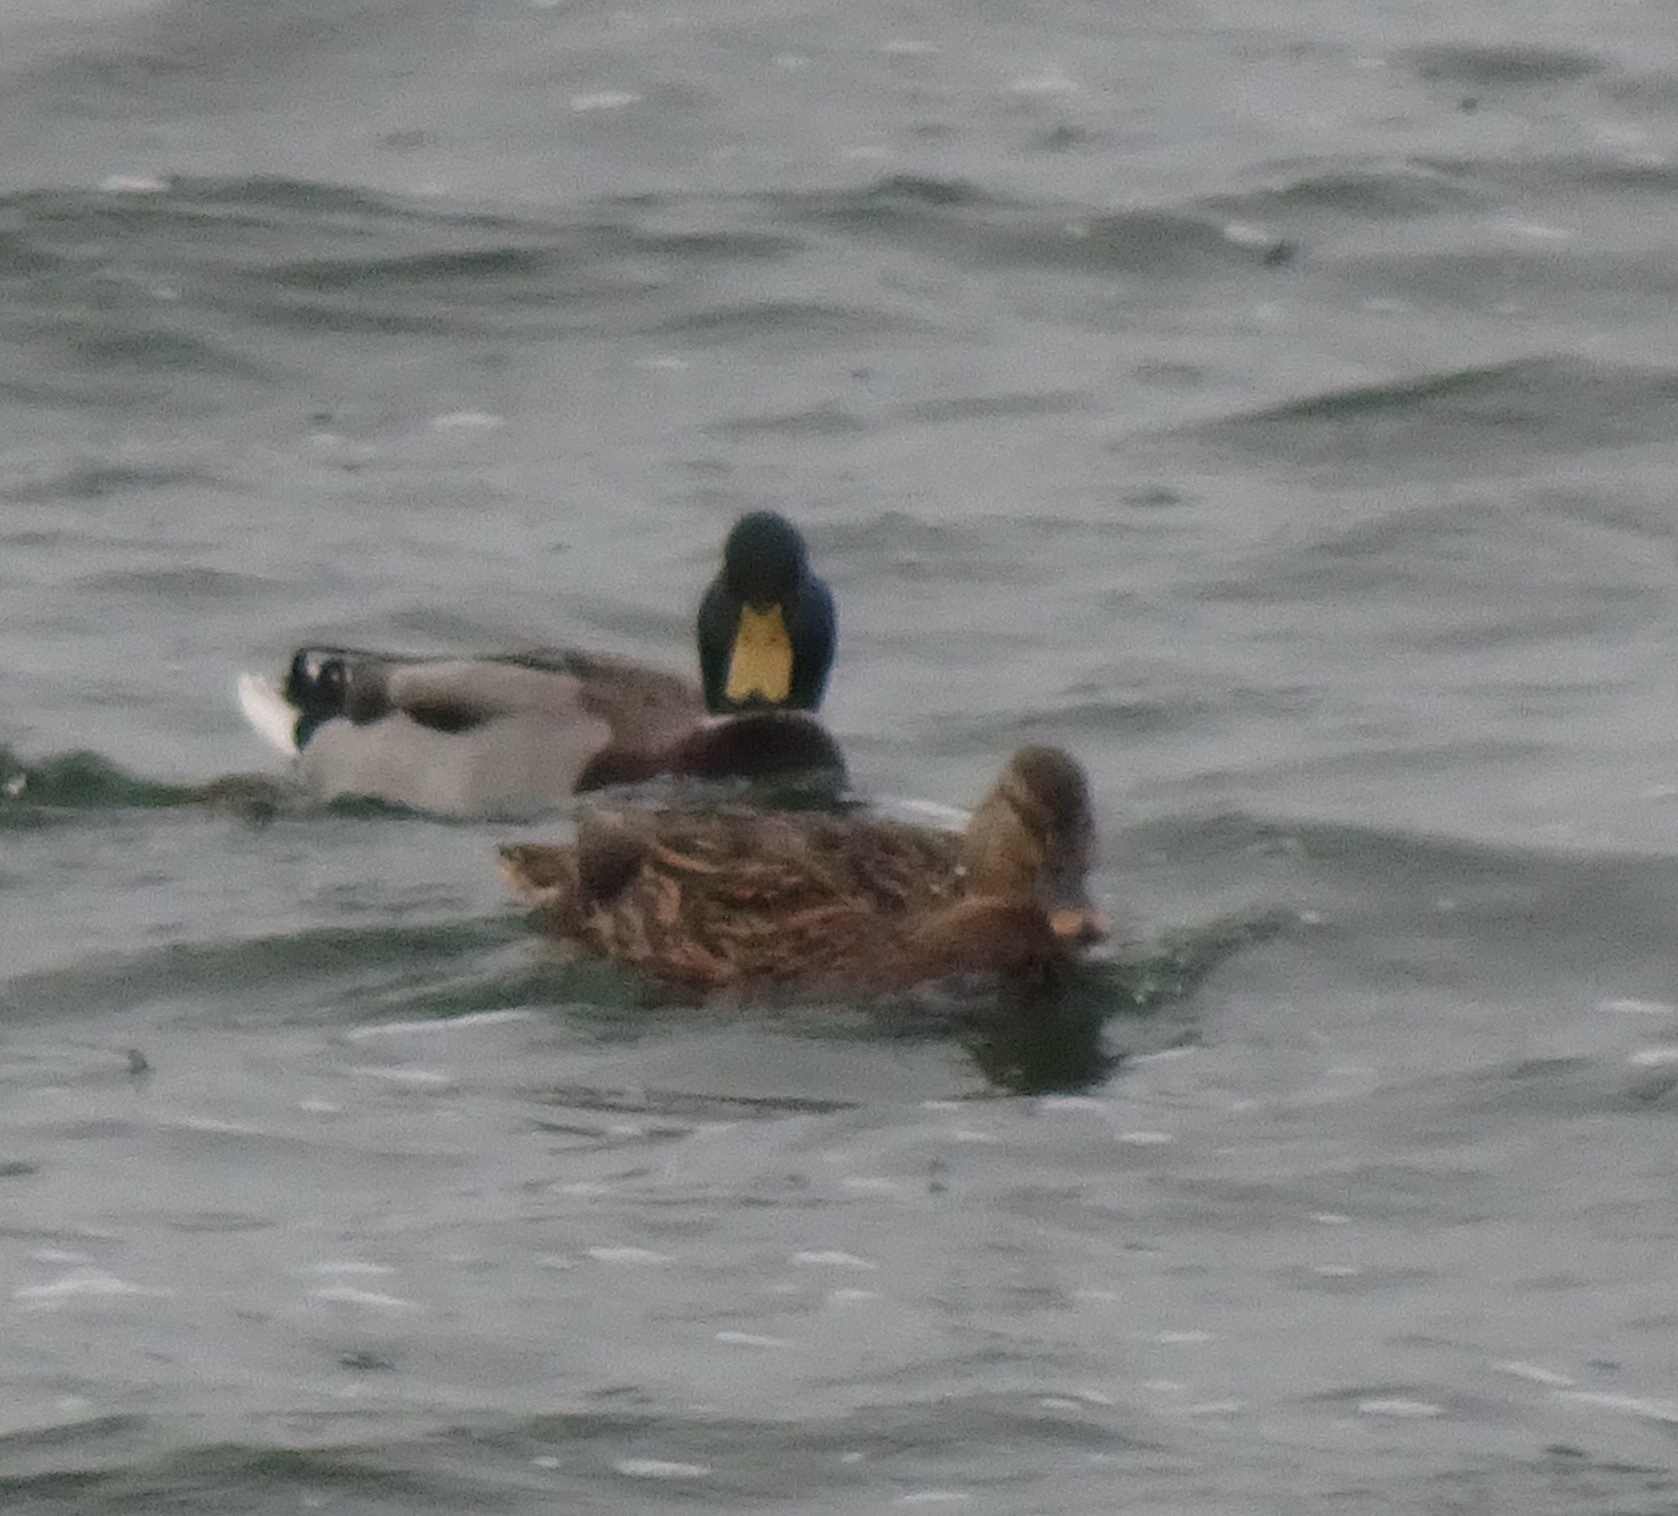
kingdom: Animalia
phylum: Chordata
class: Aves
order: Anseriformes
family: Anatidae
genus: Anas
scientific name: Anas platyrhynchos
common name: Mallard
